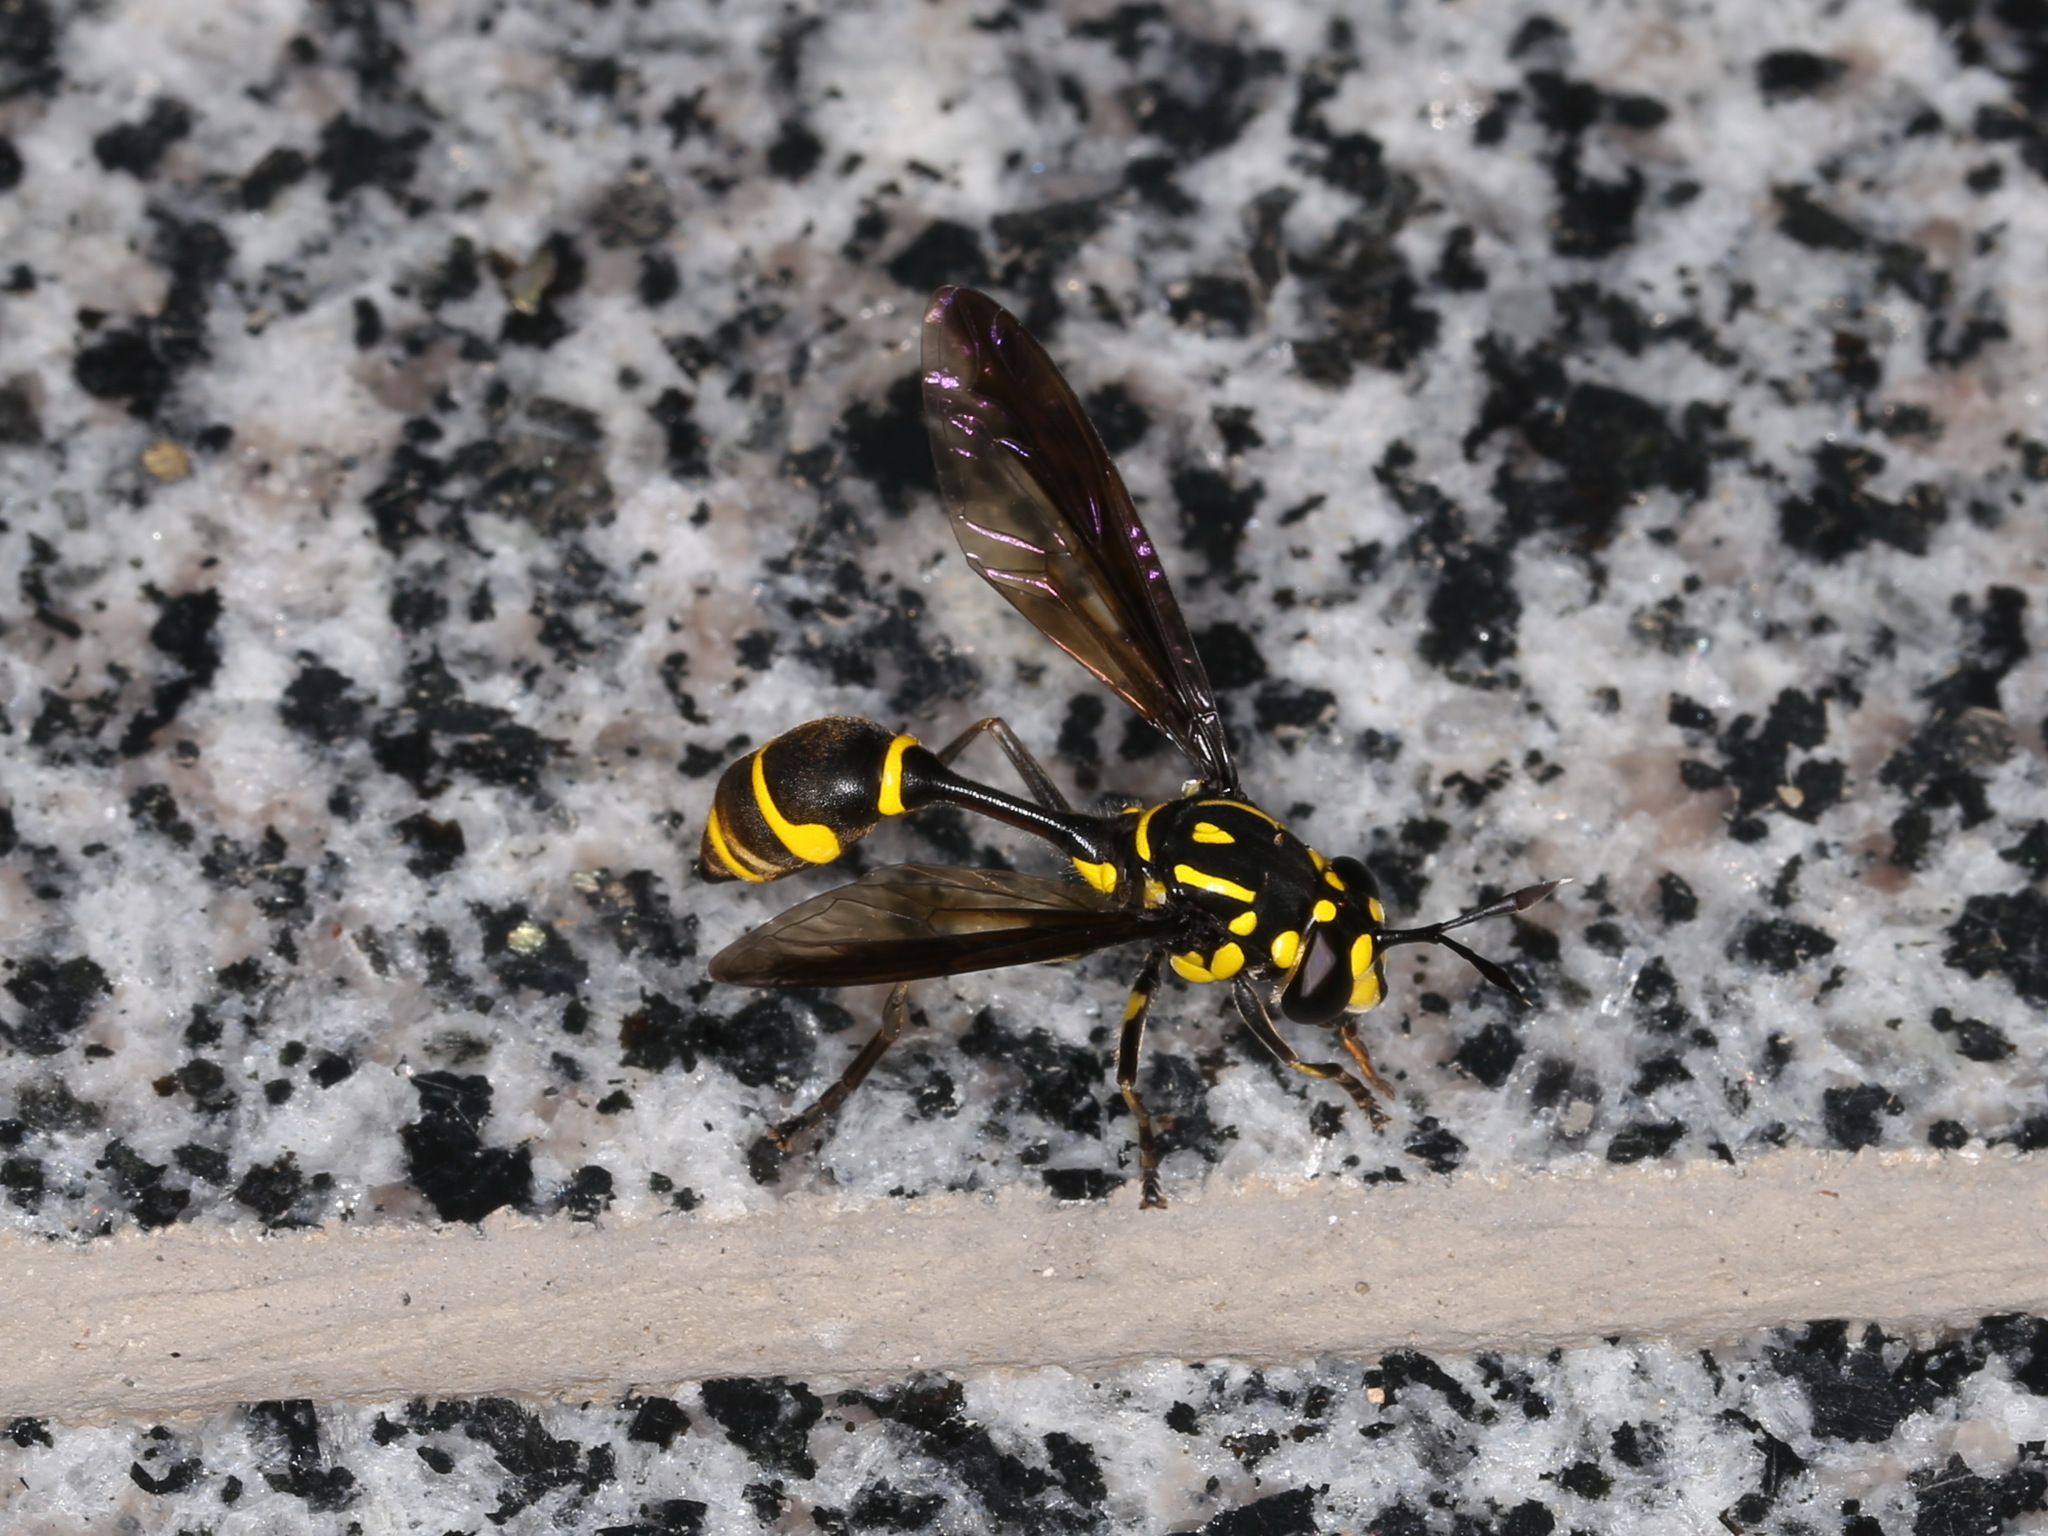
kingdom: Animalia
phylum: Arthropoda
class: Insecta
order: Diptera
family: Syrphidae
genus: Monoceromyia
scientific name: Monoceromyia trinotata
